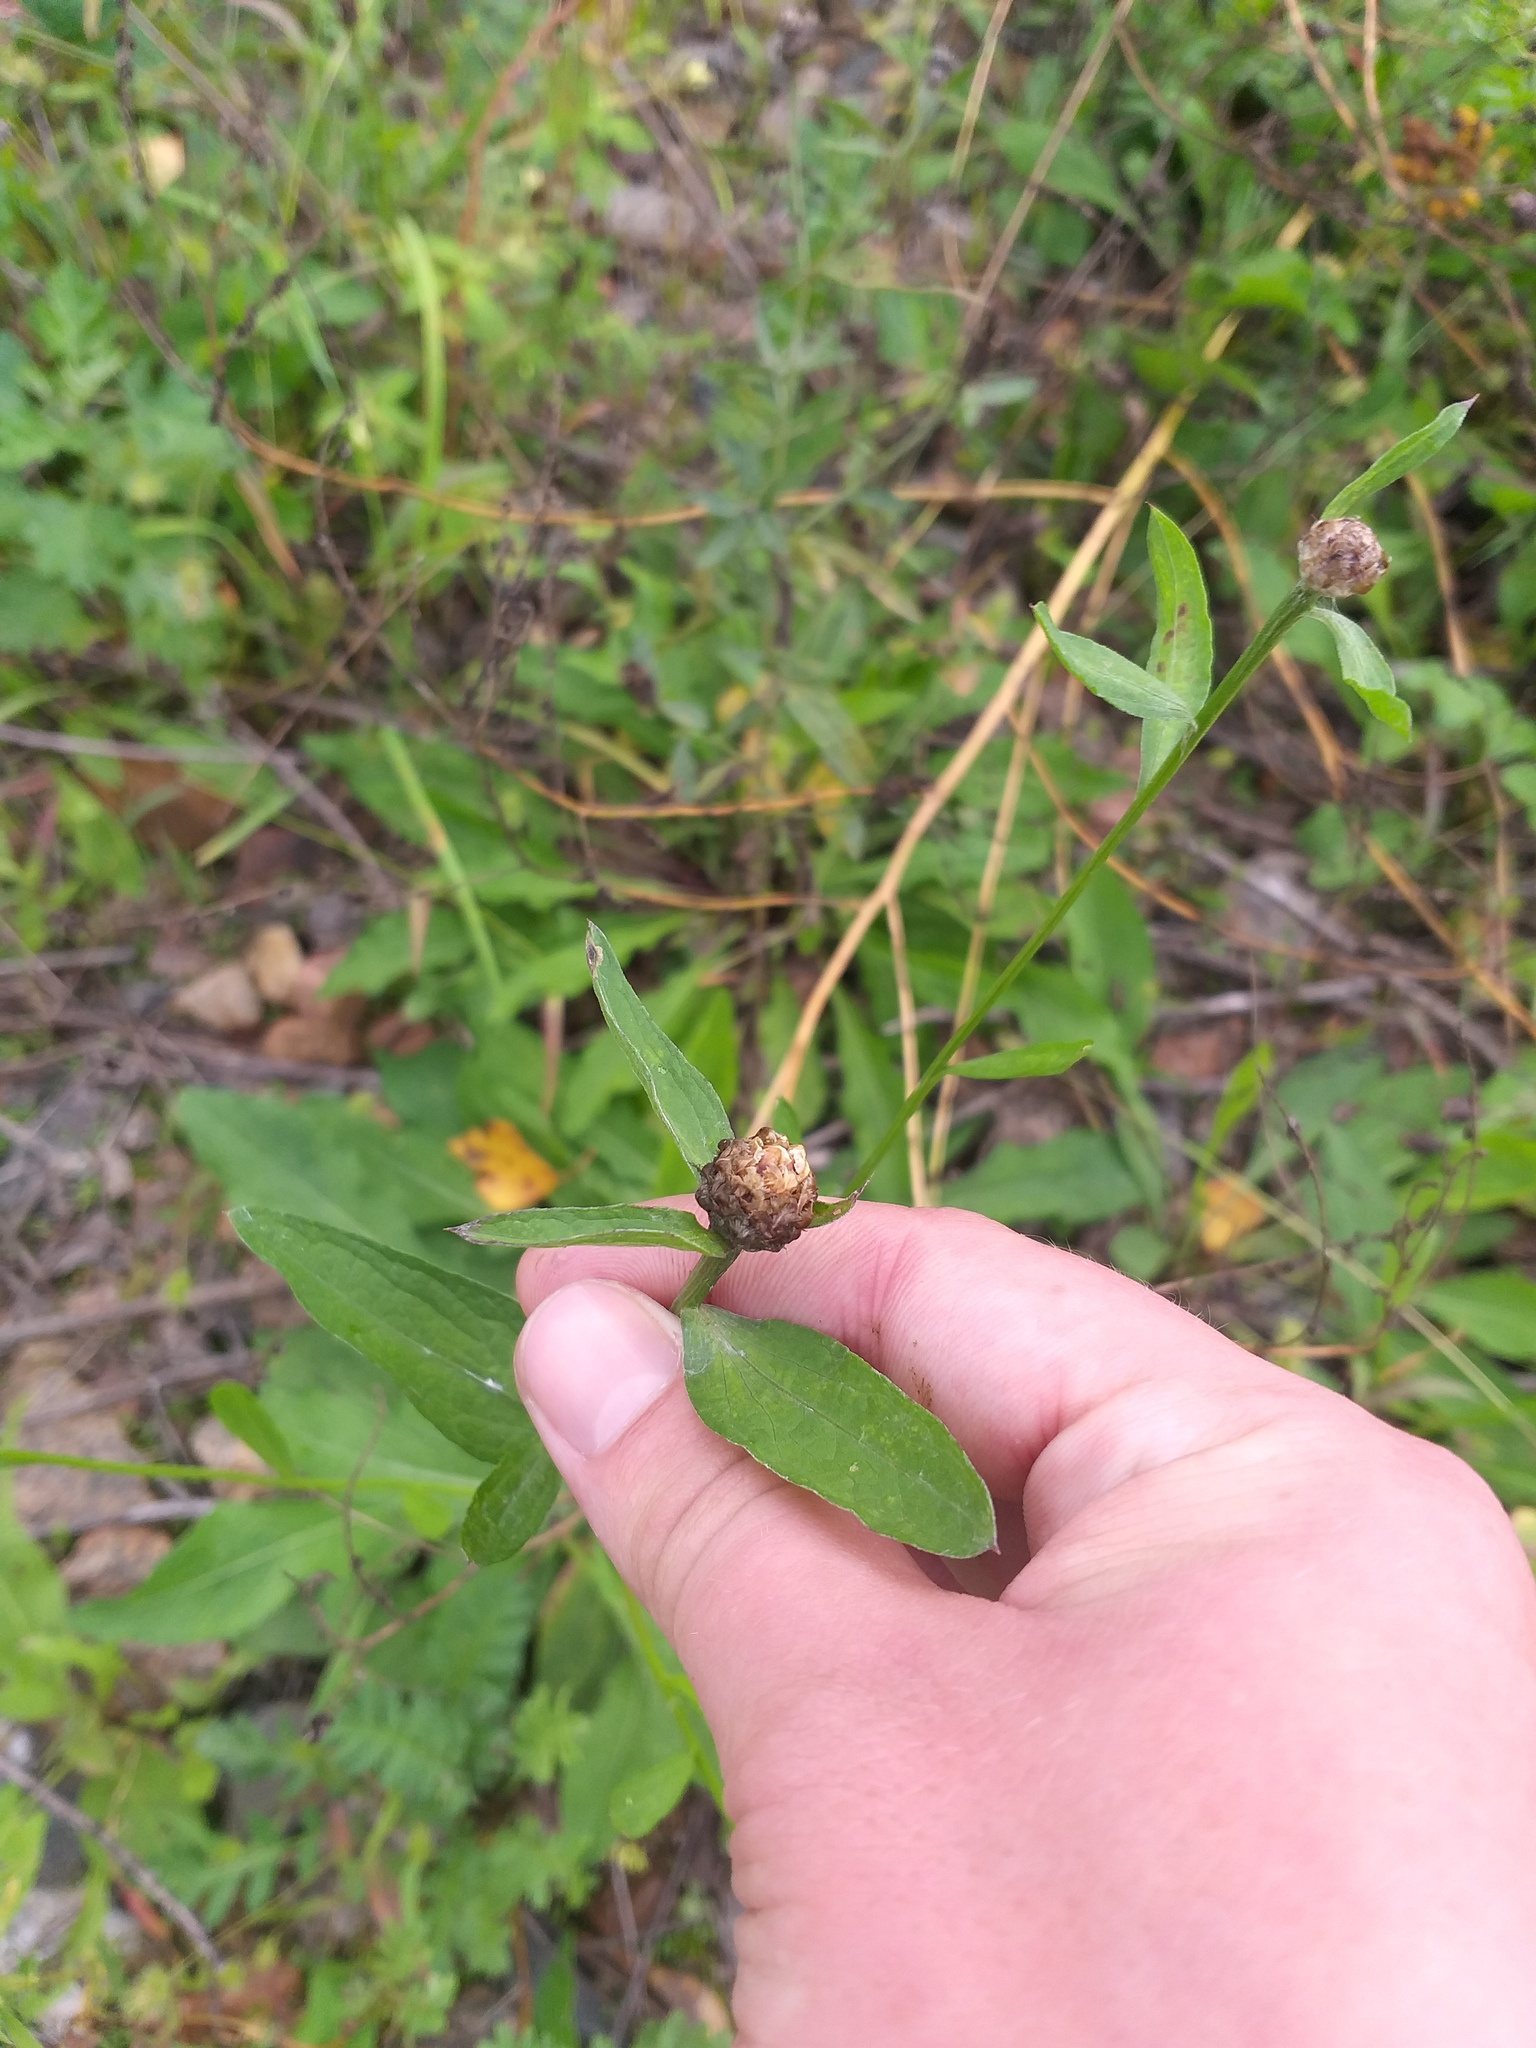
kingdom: Plantae
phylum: Tracheophyta
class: Magnoliopsida
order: Asterales
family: Asteraceae
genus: Centaurea
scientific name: Centaurea jacea
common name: Brown knapweed
